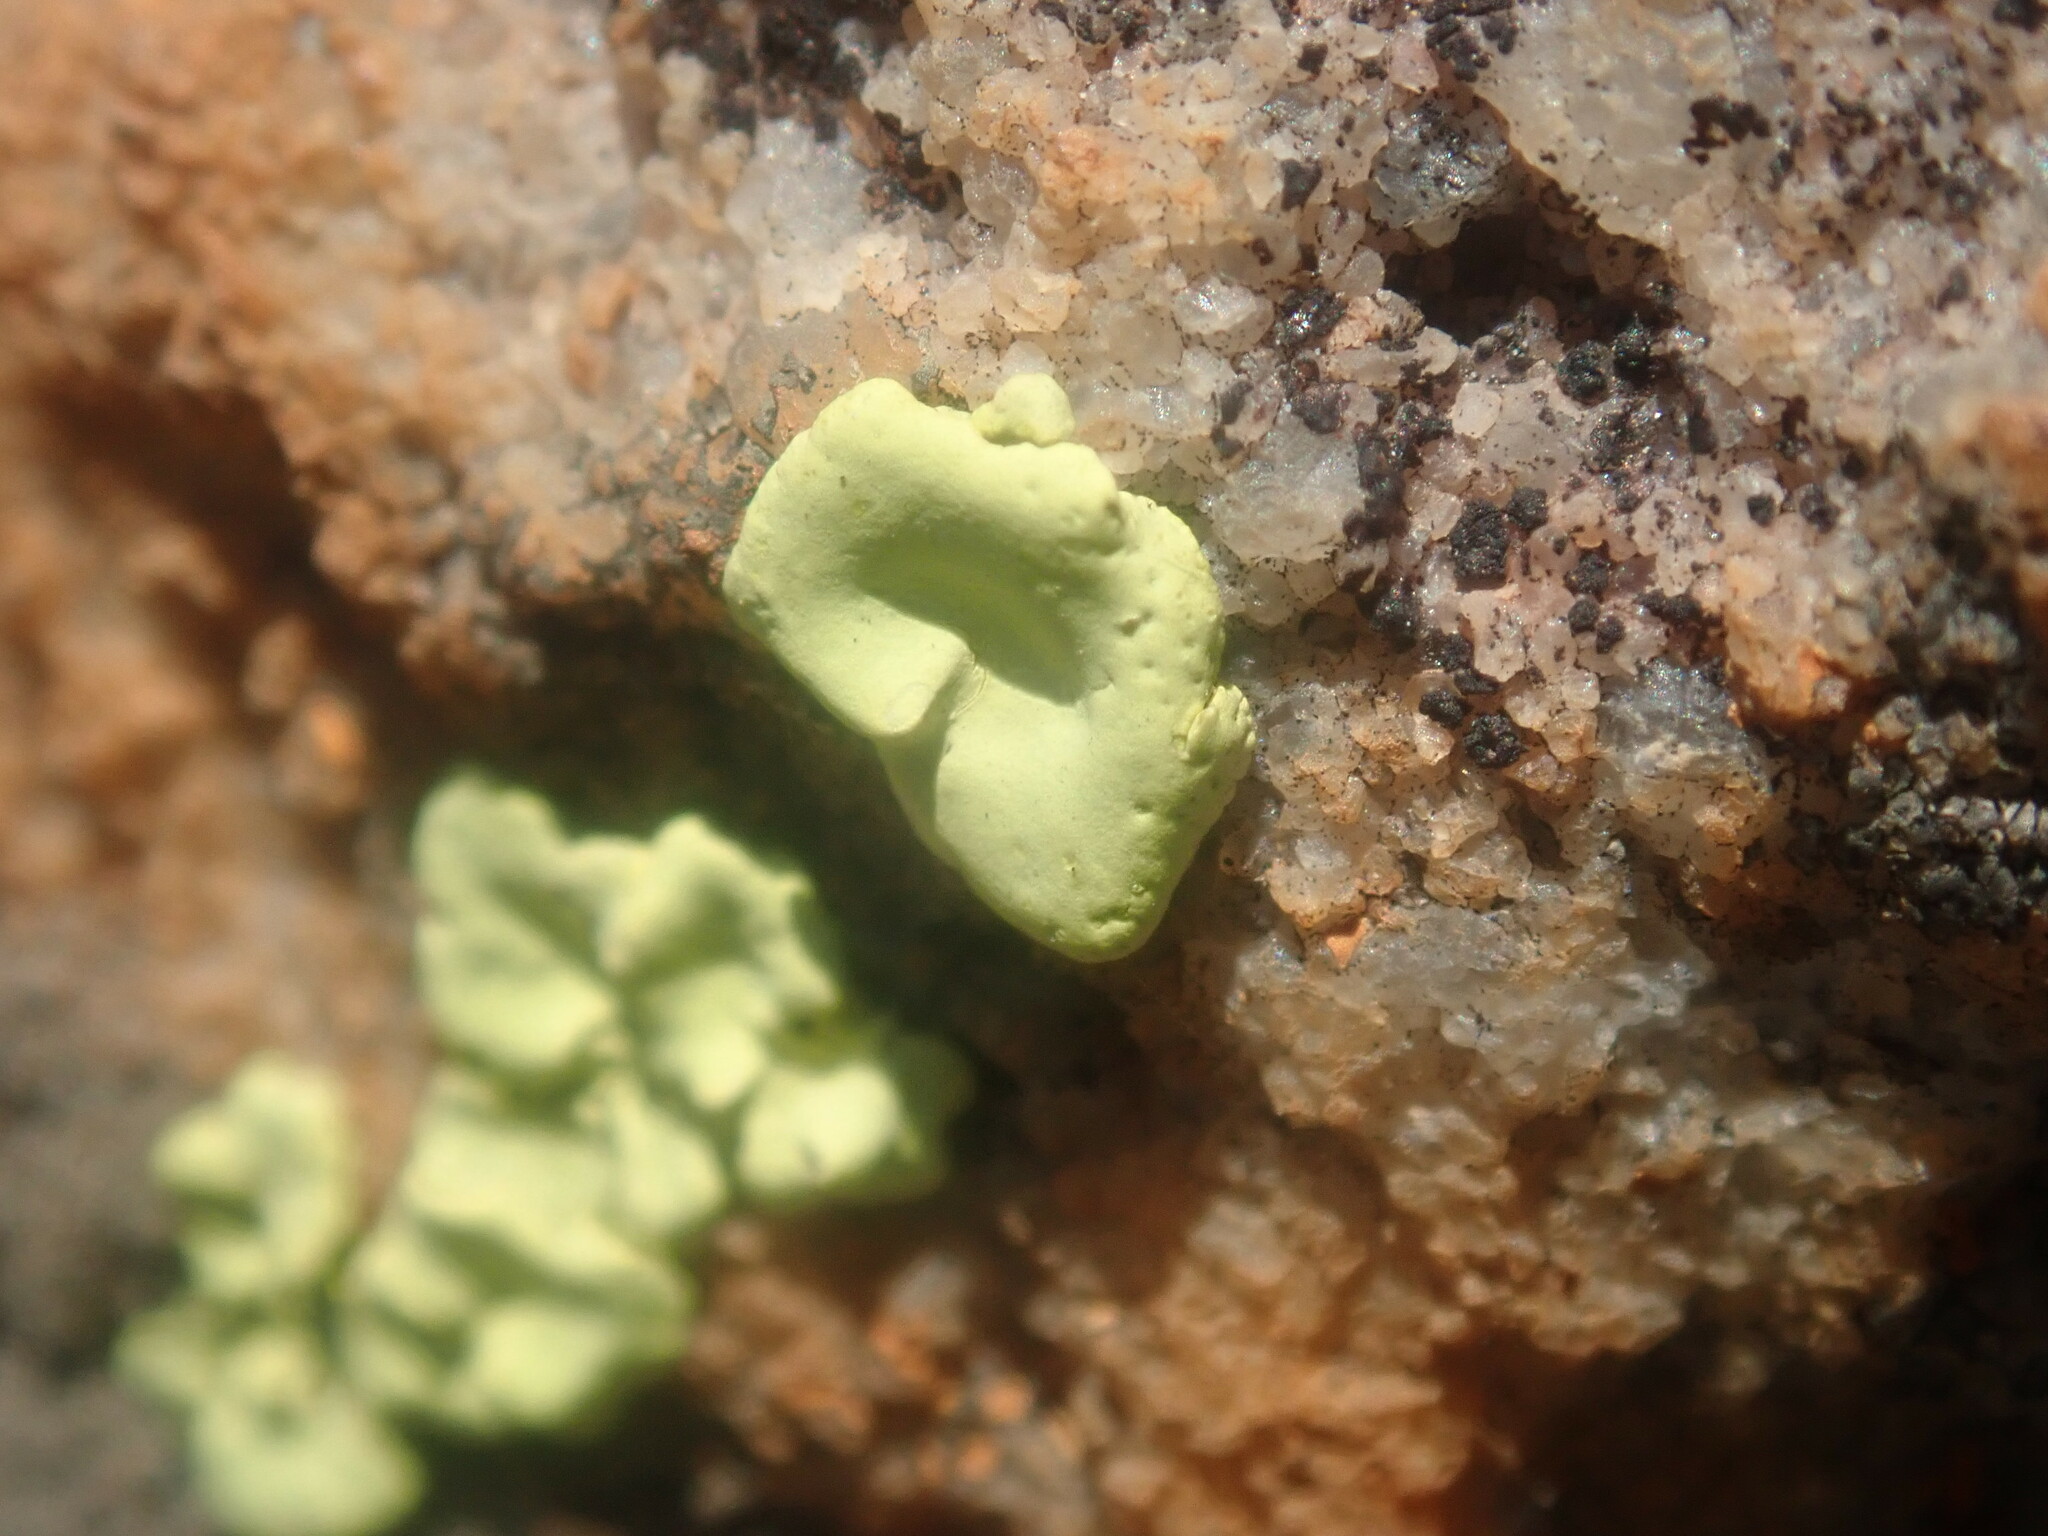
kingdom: Fungi
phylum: Ascomycota
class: Lecanoromycetes
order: Caliciales
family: Caliciaceae
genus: Dermatiscum
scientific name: Dermatiscum thunbergii
